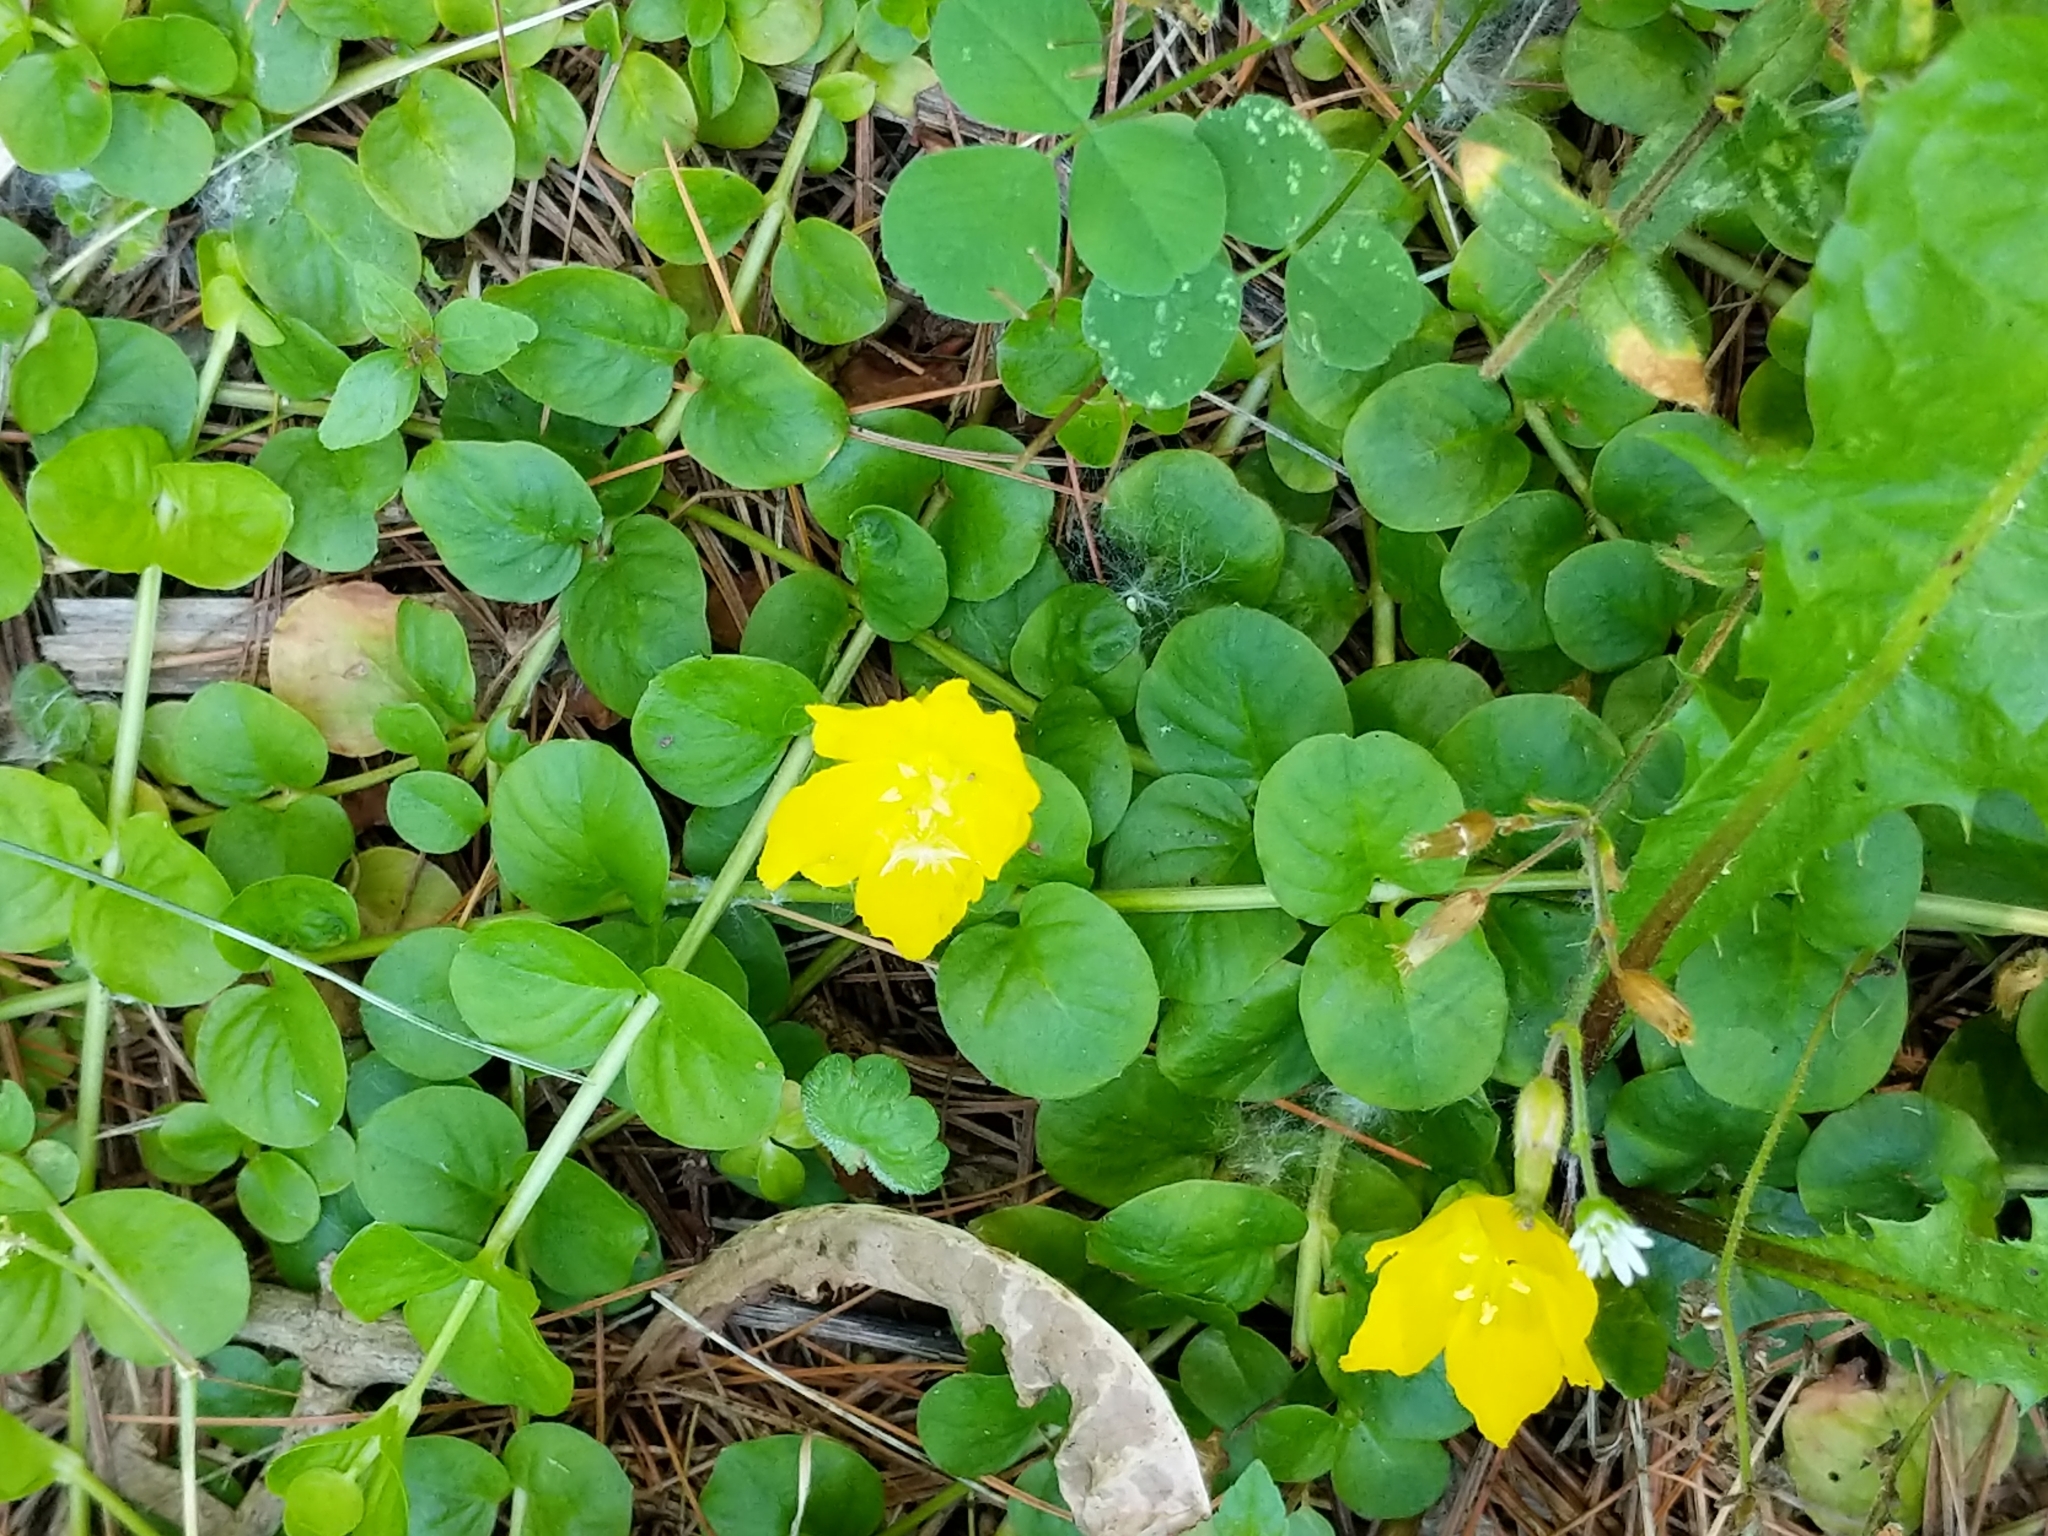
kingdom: Plantae
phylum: Tracheophyta
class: Magnoliopsida
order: Ericales
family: Primulaceae
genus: Lysimachia
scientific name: Lysimachia nummularia
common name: Moneywort
